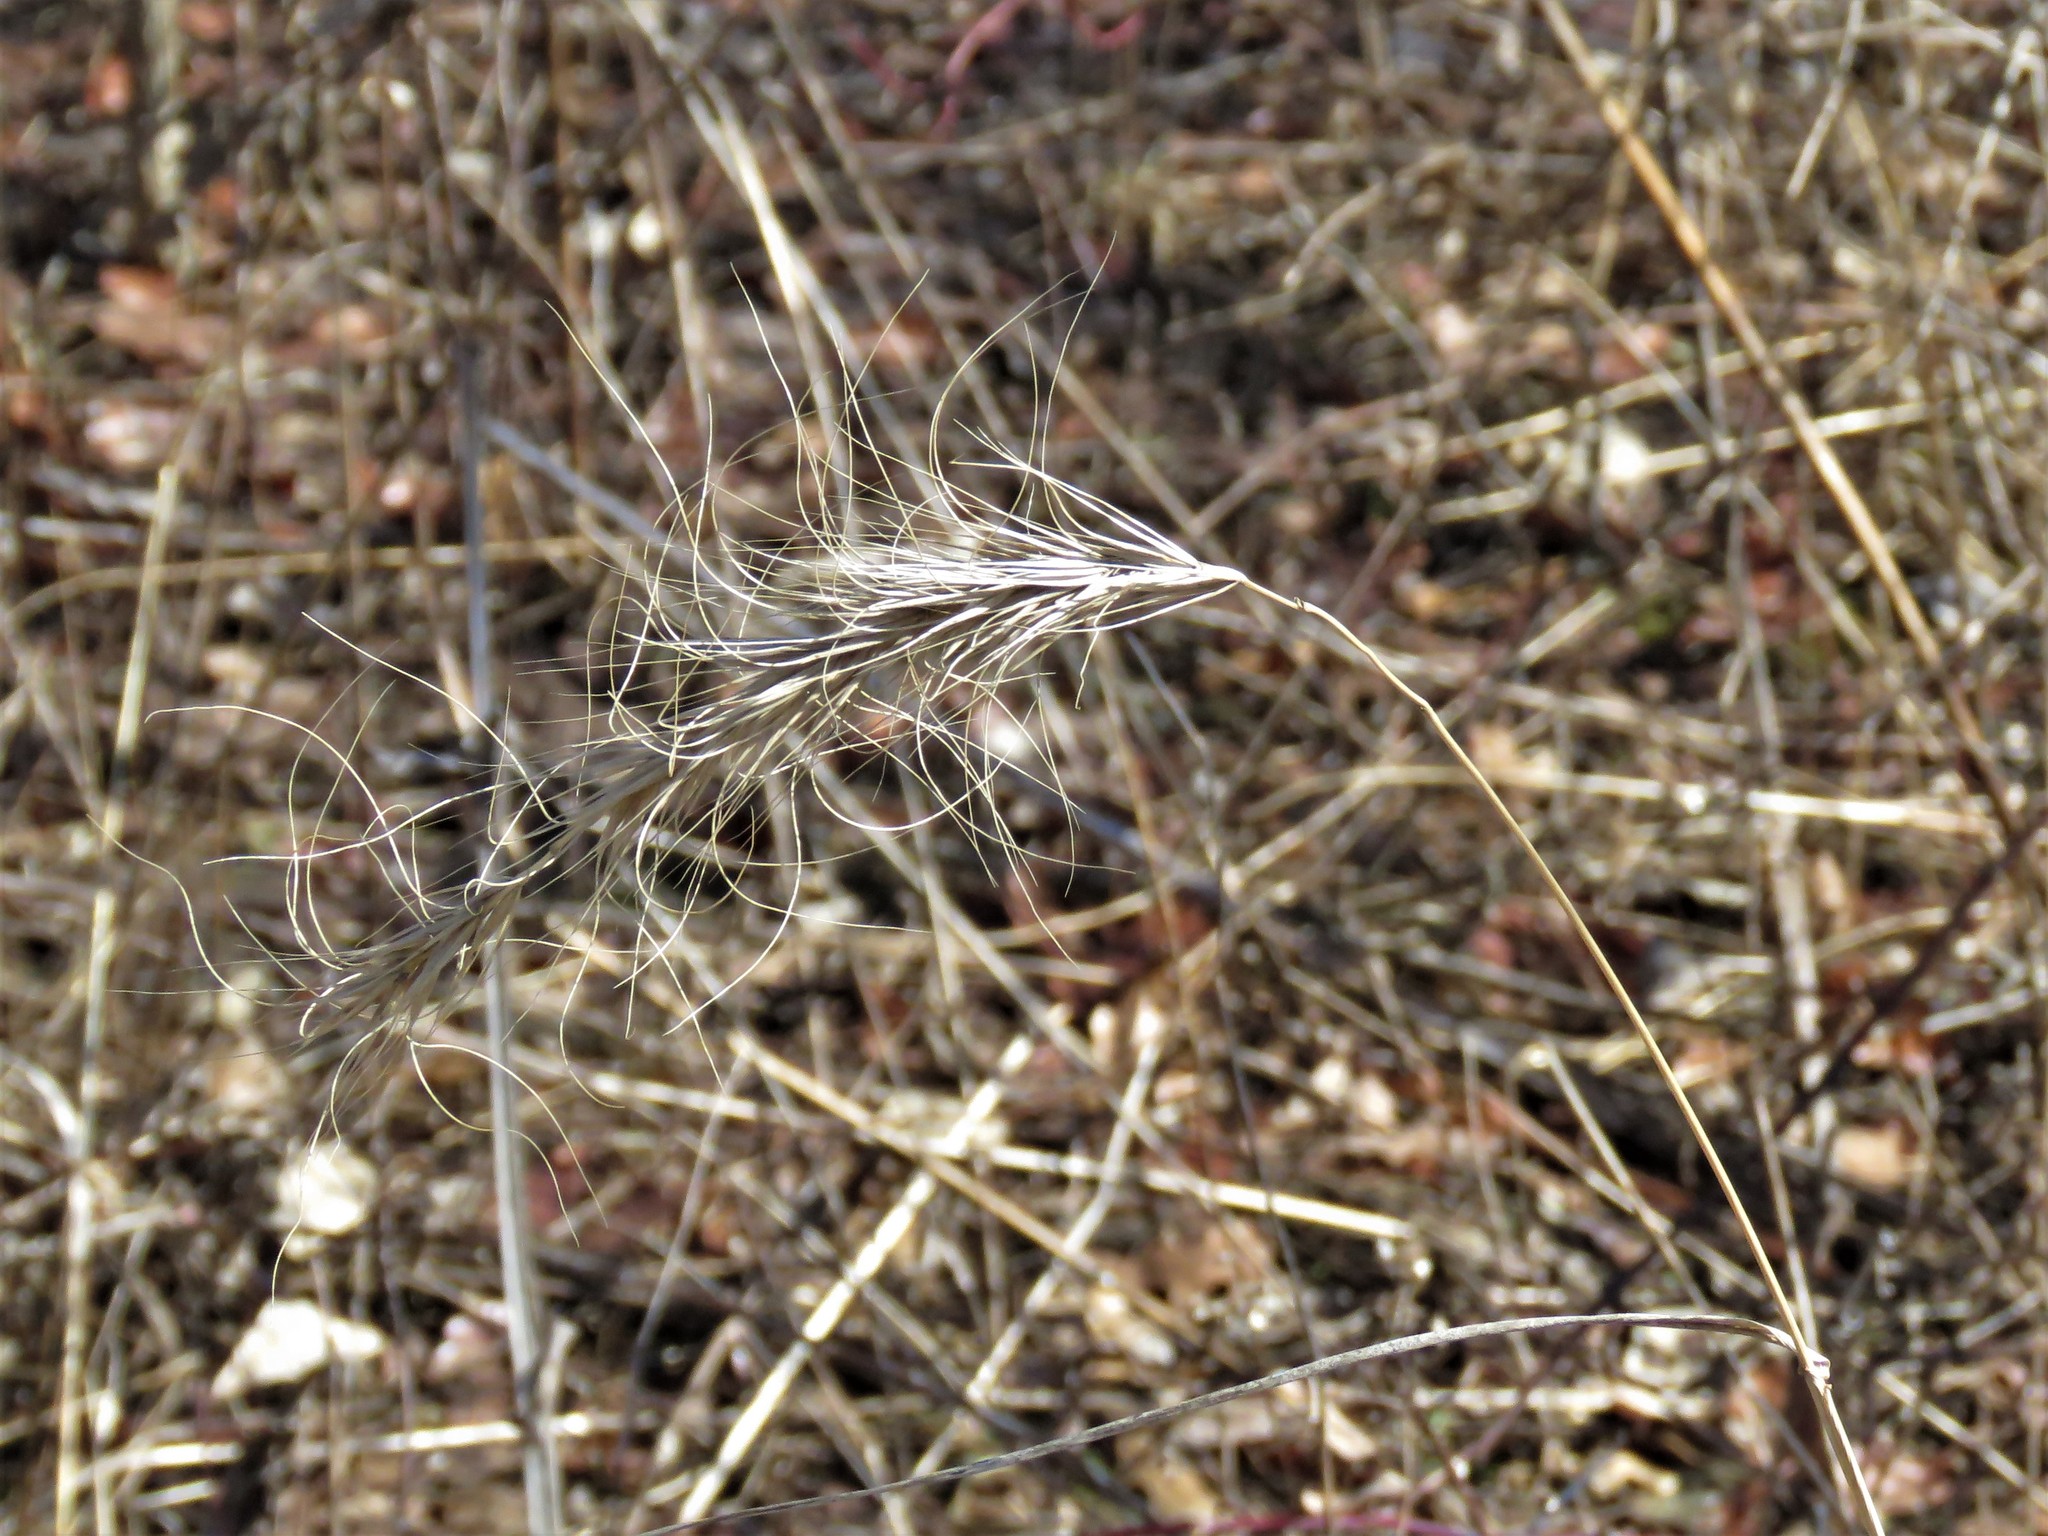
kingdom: Plantae
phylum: Tracheophyta
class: Liliopsida
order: Poales
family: Poaceae
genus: Elymus
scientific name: Elymus canadensis
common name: Canada wild rye
